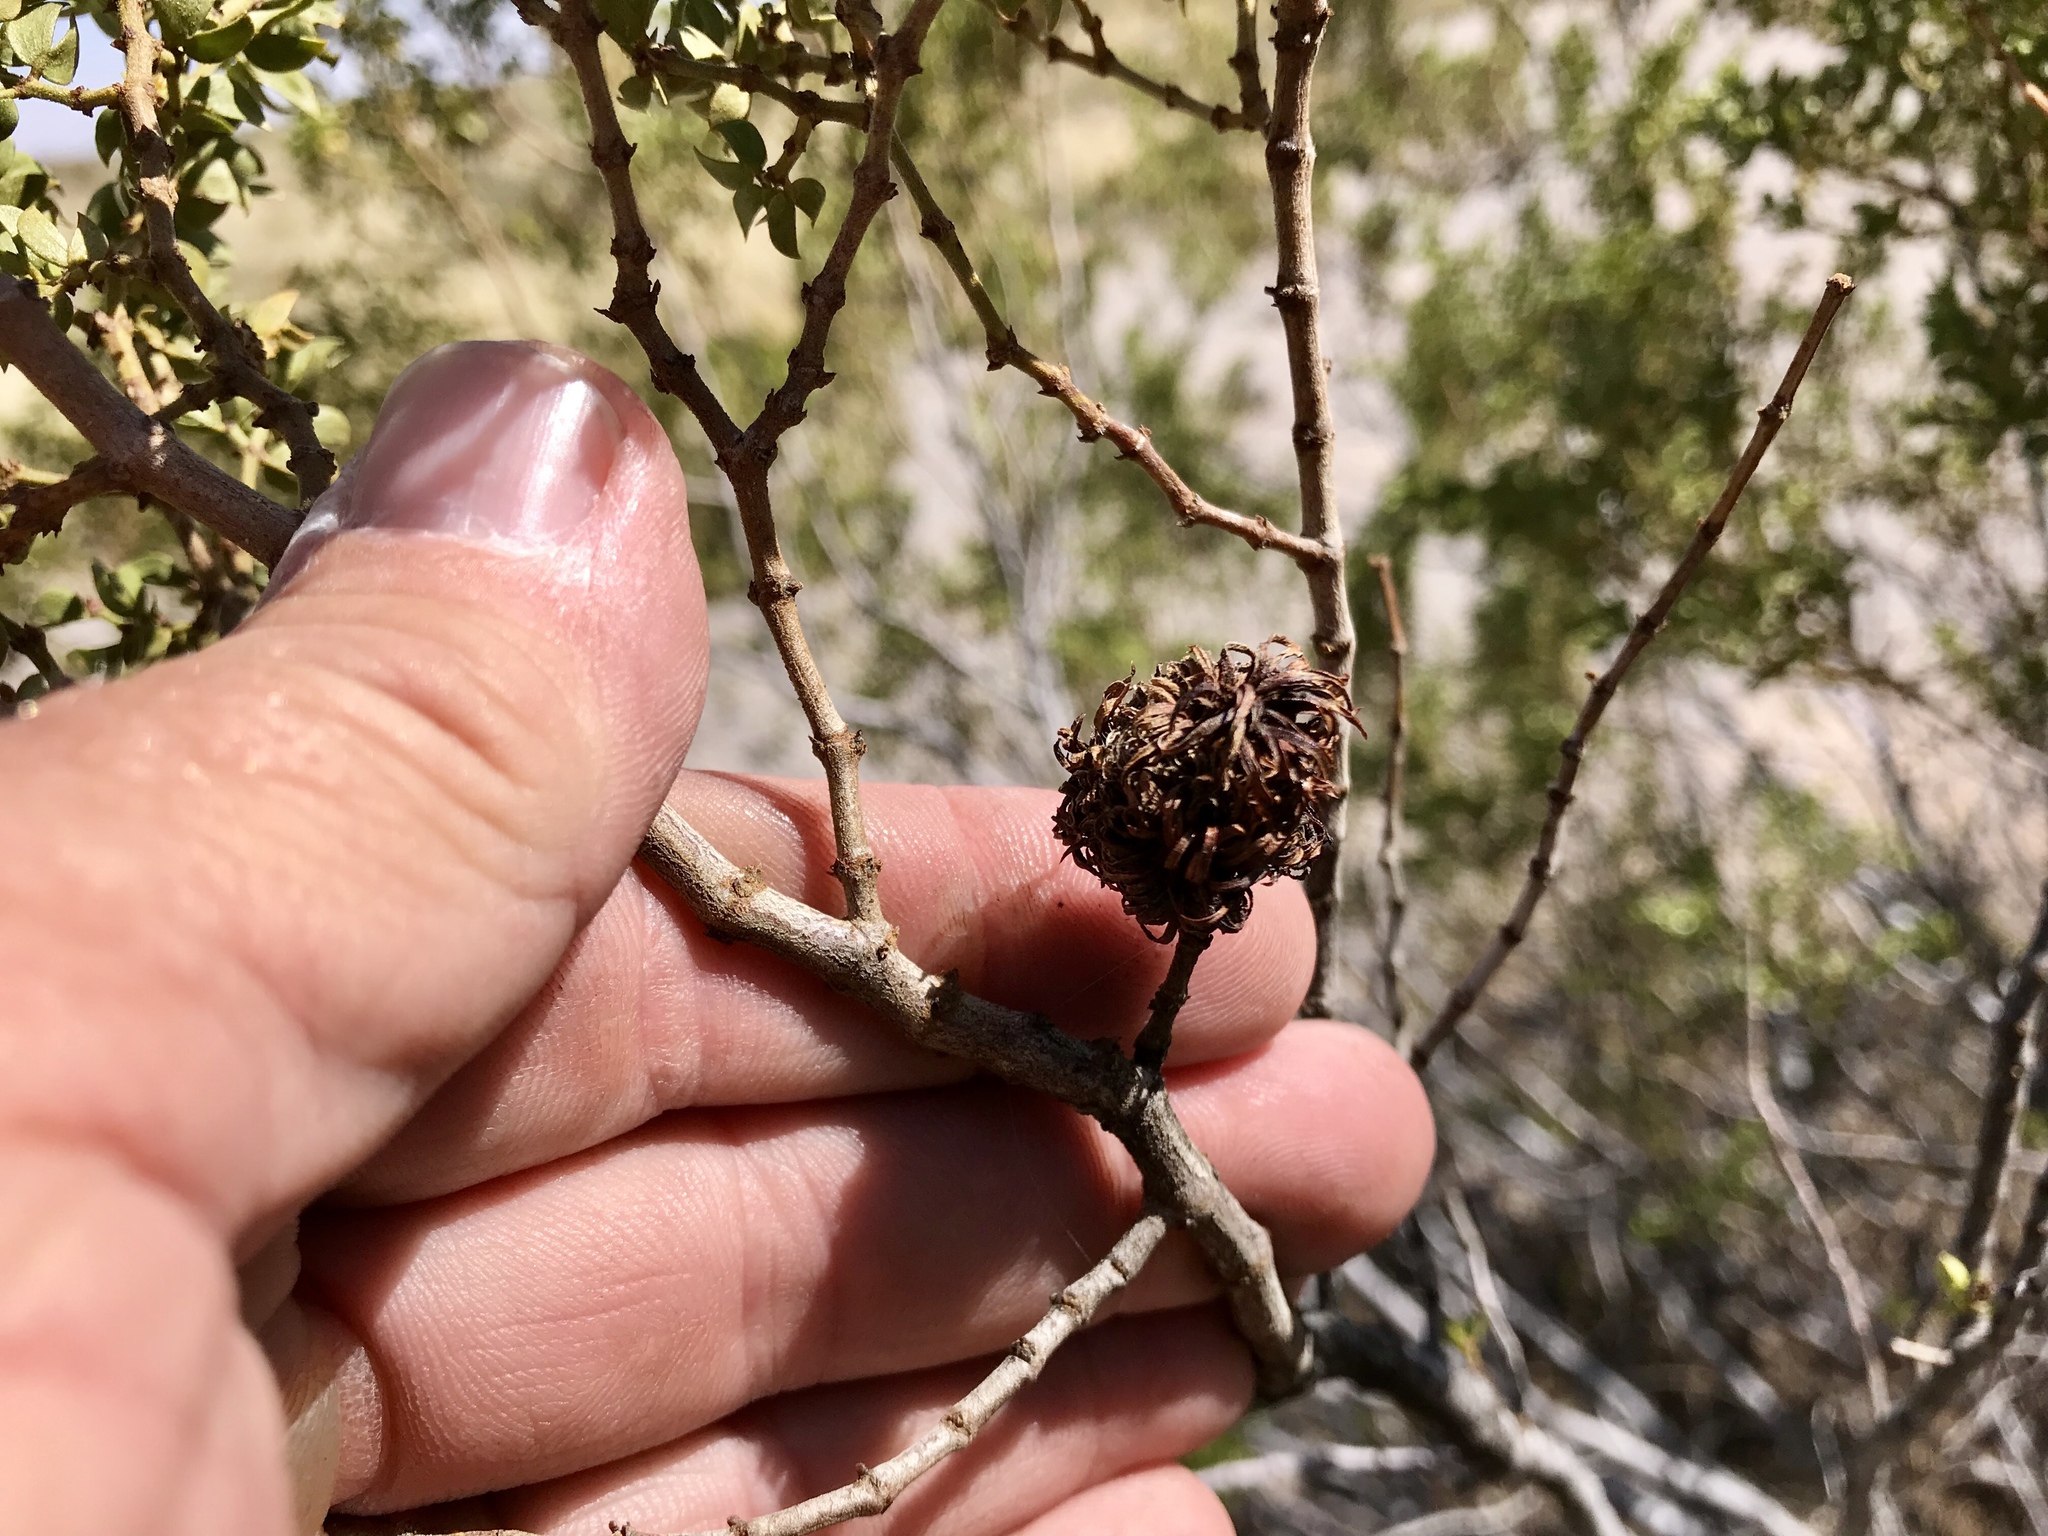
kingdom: Animalia
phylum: Arthropoda
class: Insecta
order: Diptera
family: Cecidomyiidae
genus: Asphondylia
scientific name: Asphondylia auripila
